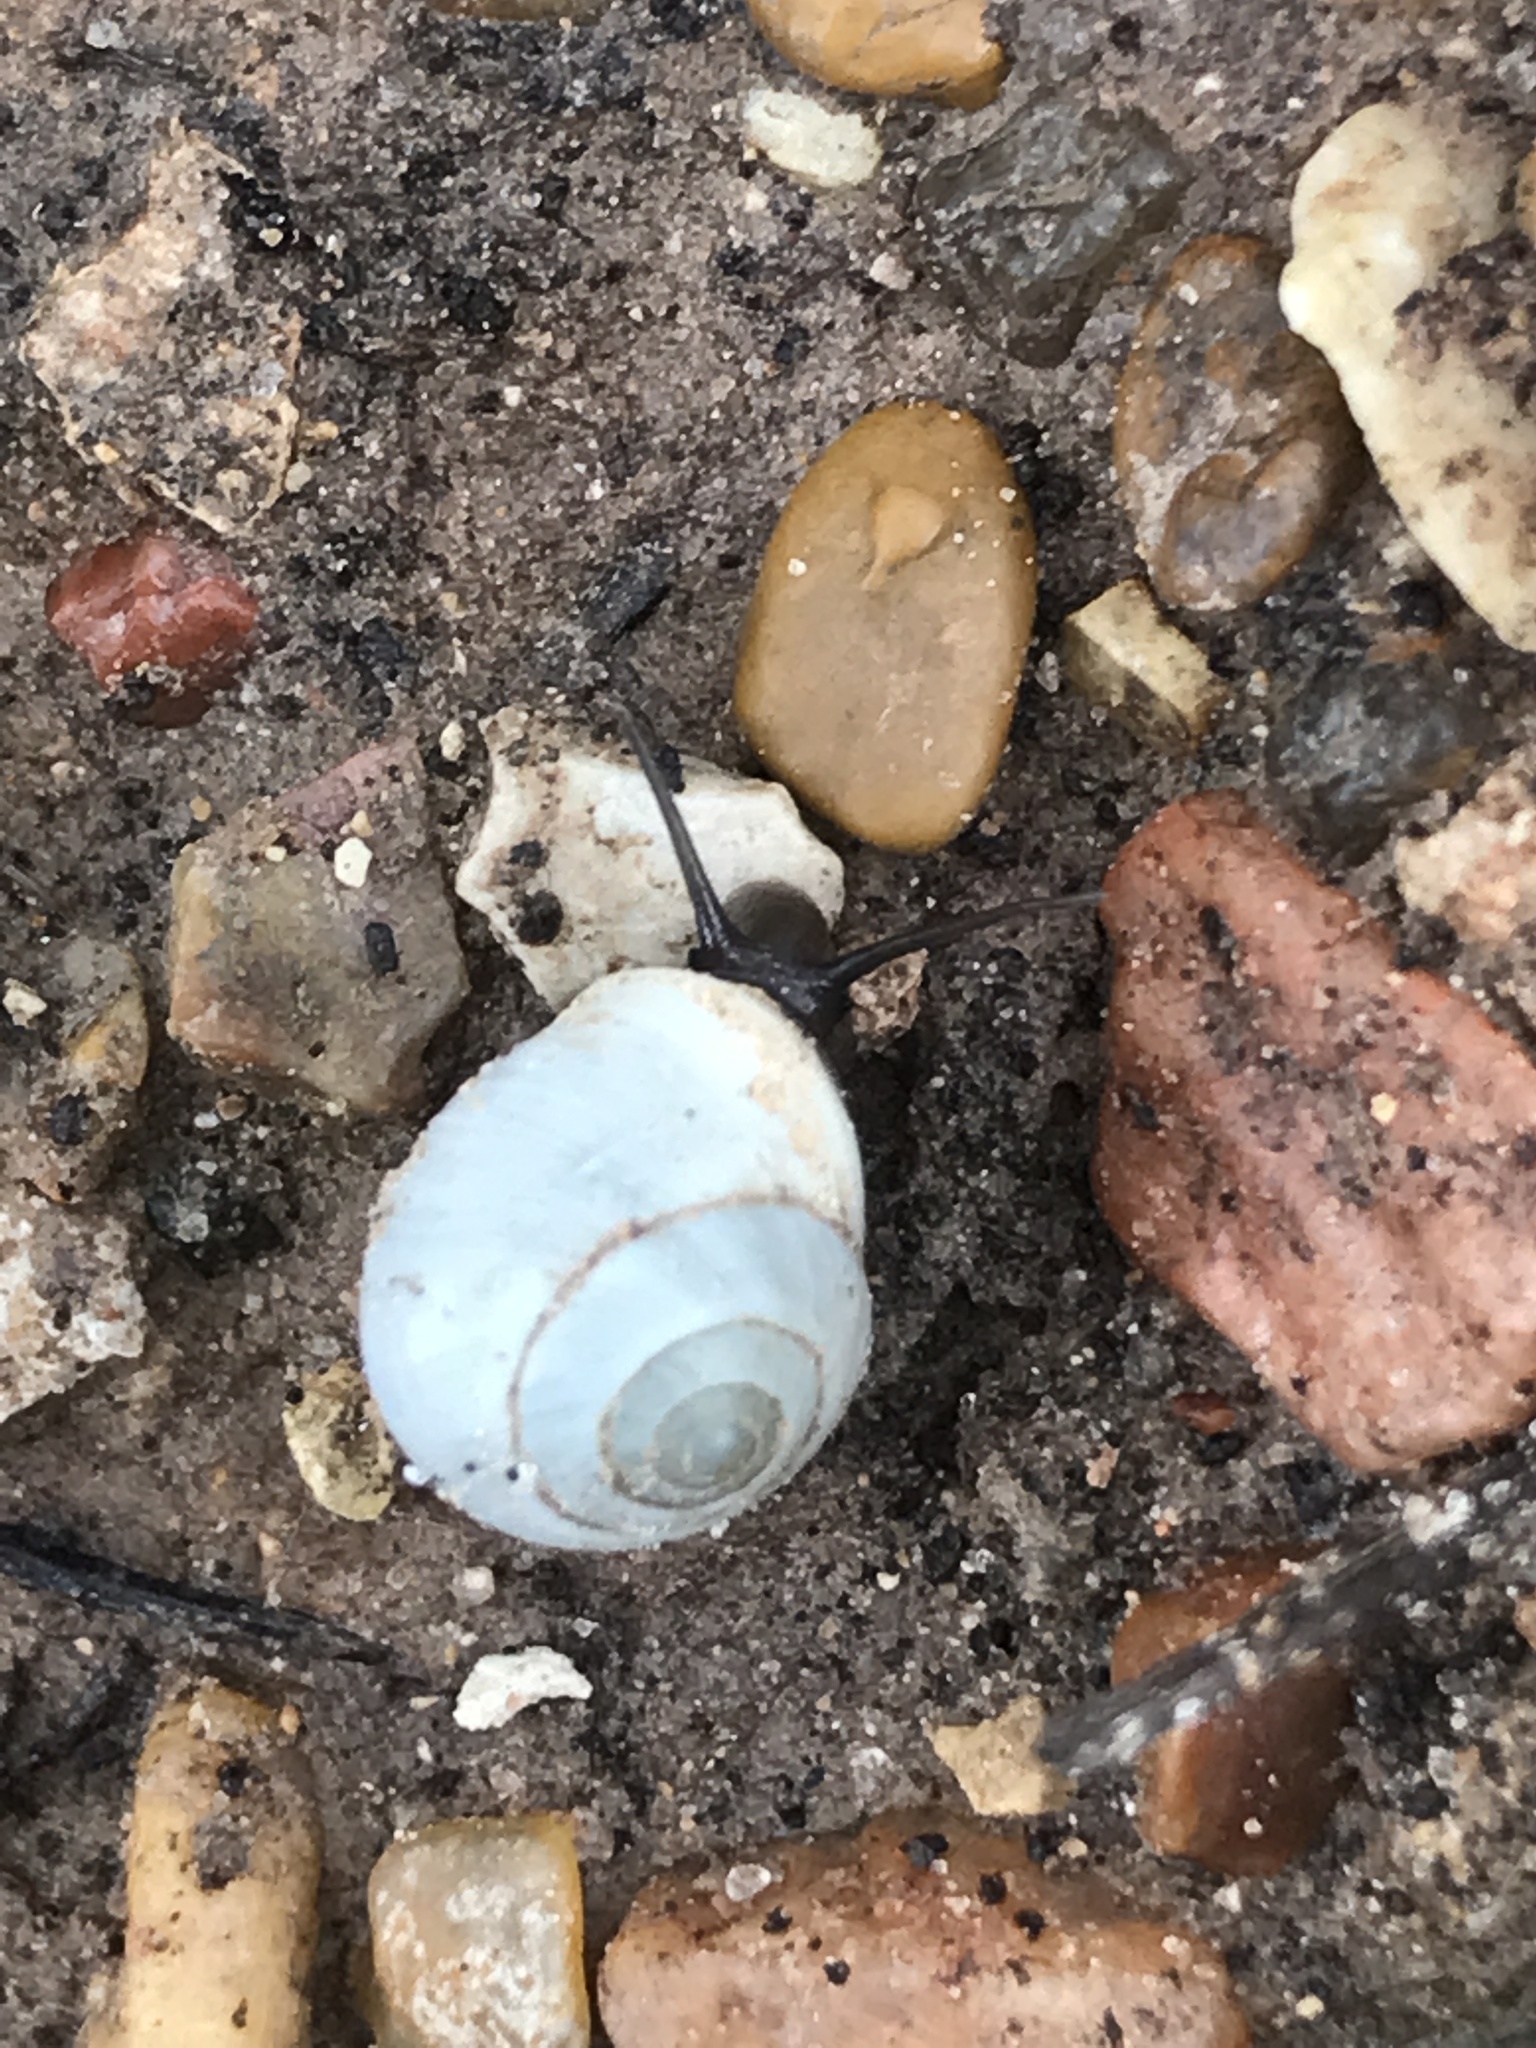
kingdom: Animalia
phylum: Mollusca
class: Gastropoda
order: Cycloneritida
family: Helicinidae
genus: Helicina
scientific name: Helicina orbiculata
